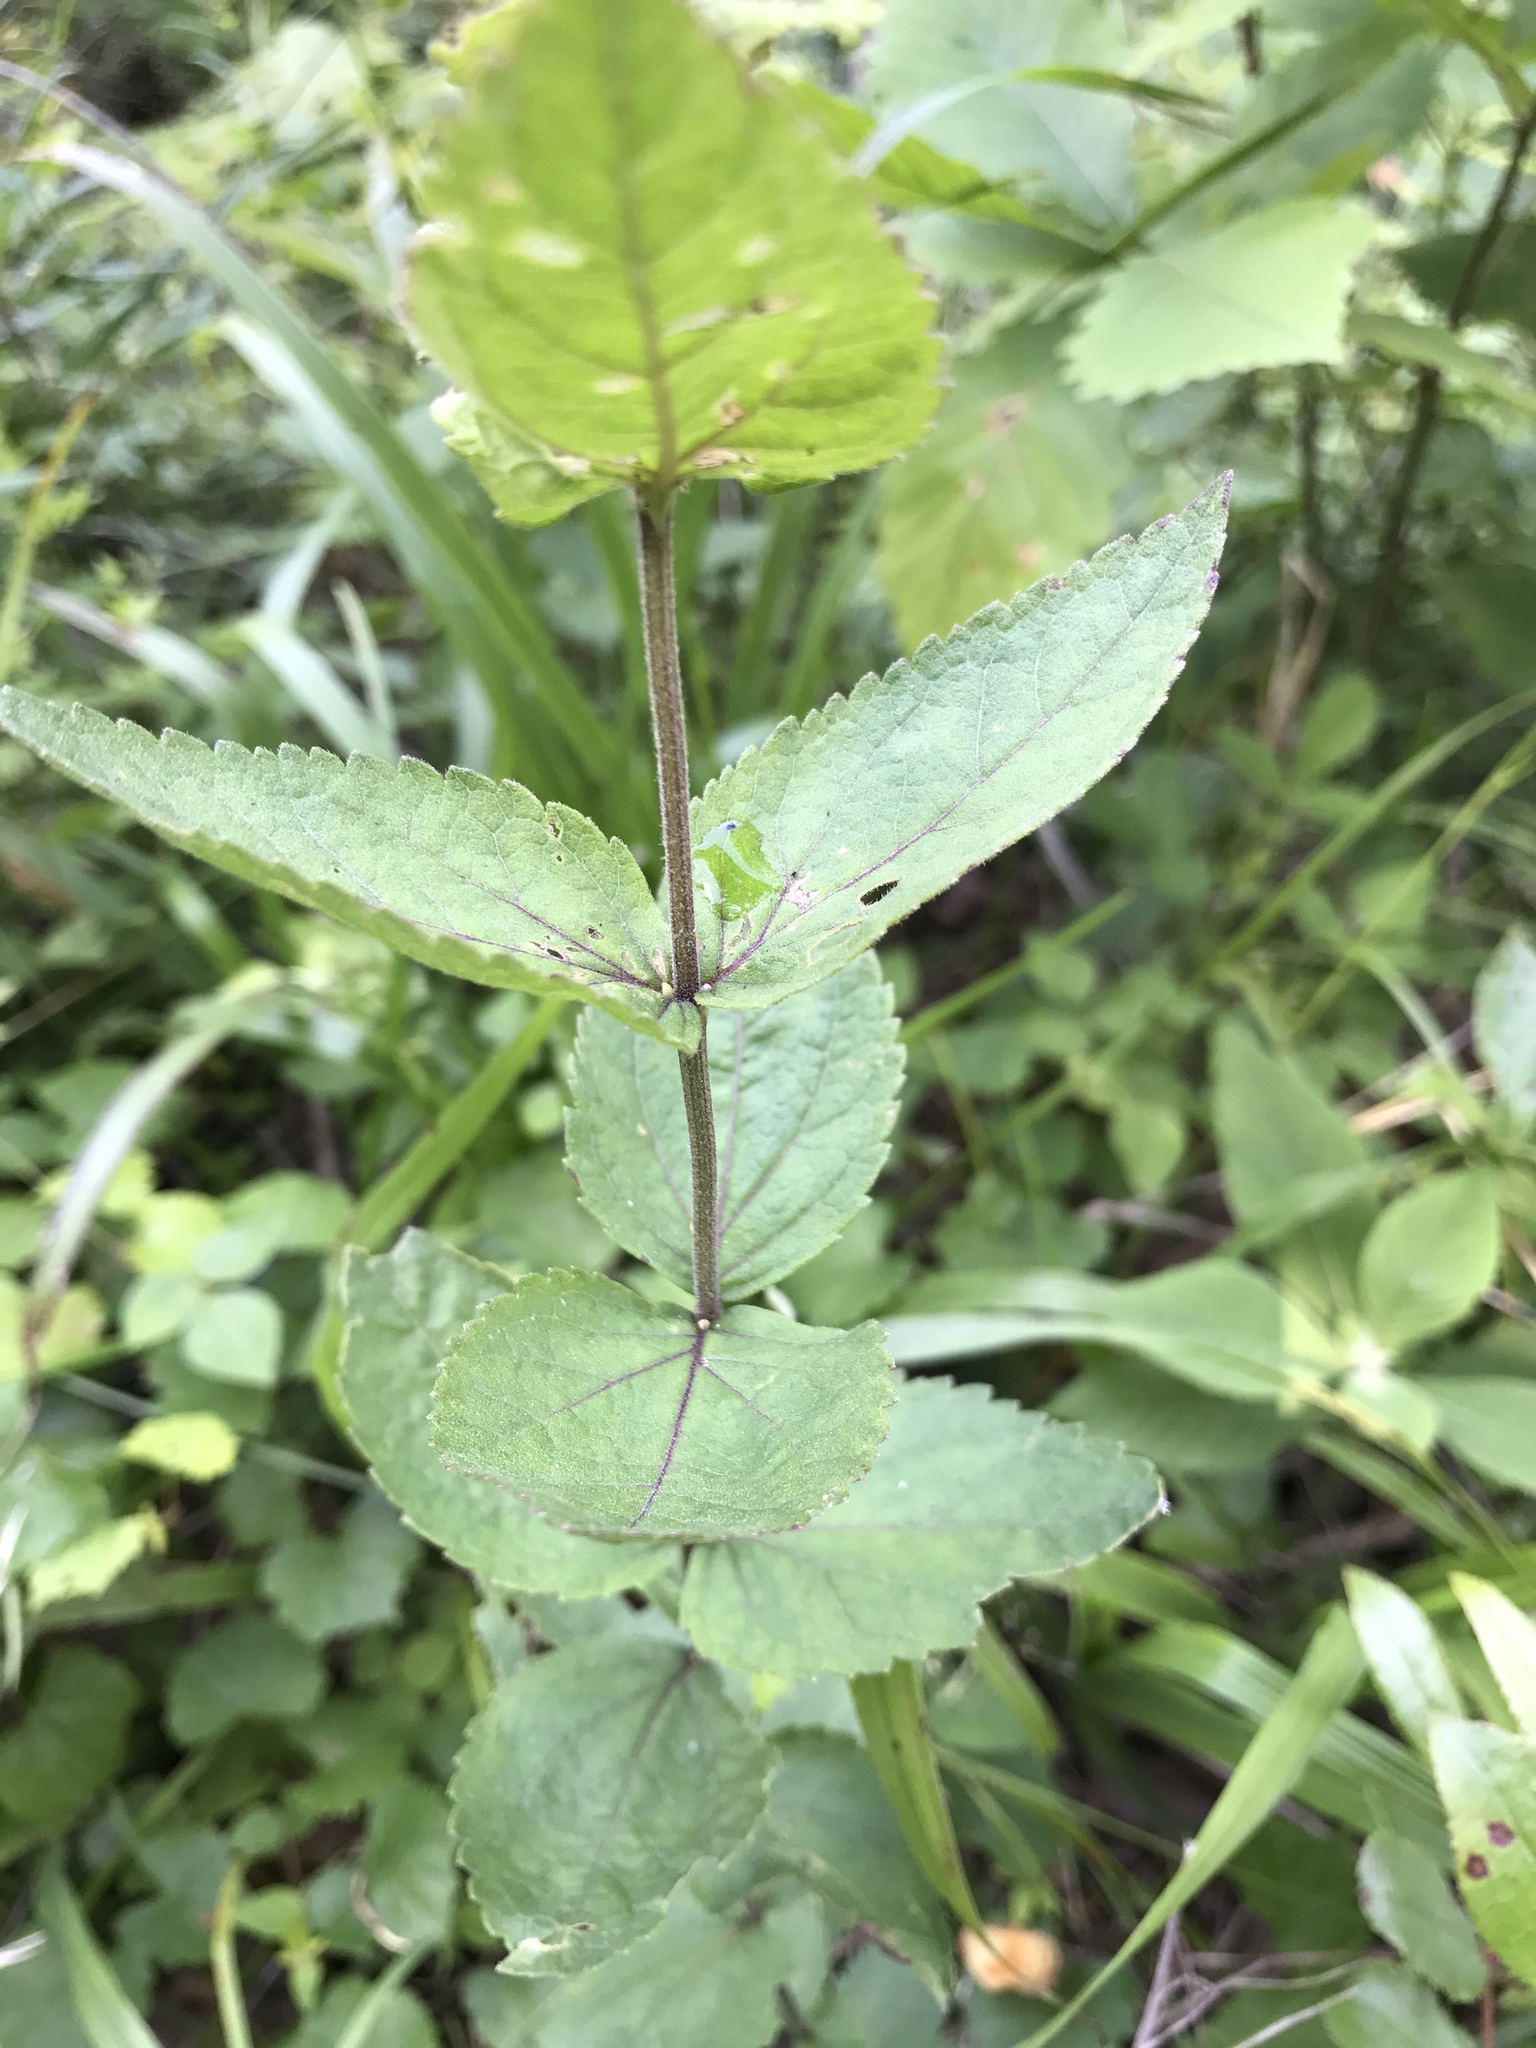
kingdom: Plantae
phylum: Tracheophyta
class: Magnoliopsida
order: Asterales
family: Asteraceae
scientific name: Asteraceae
